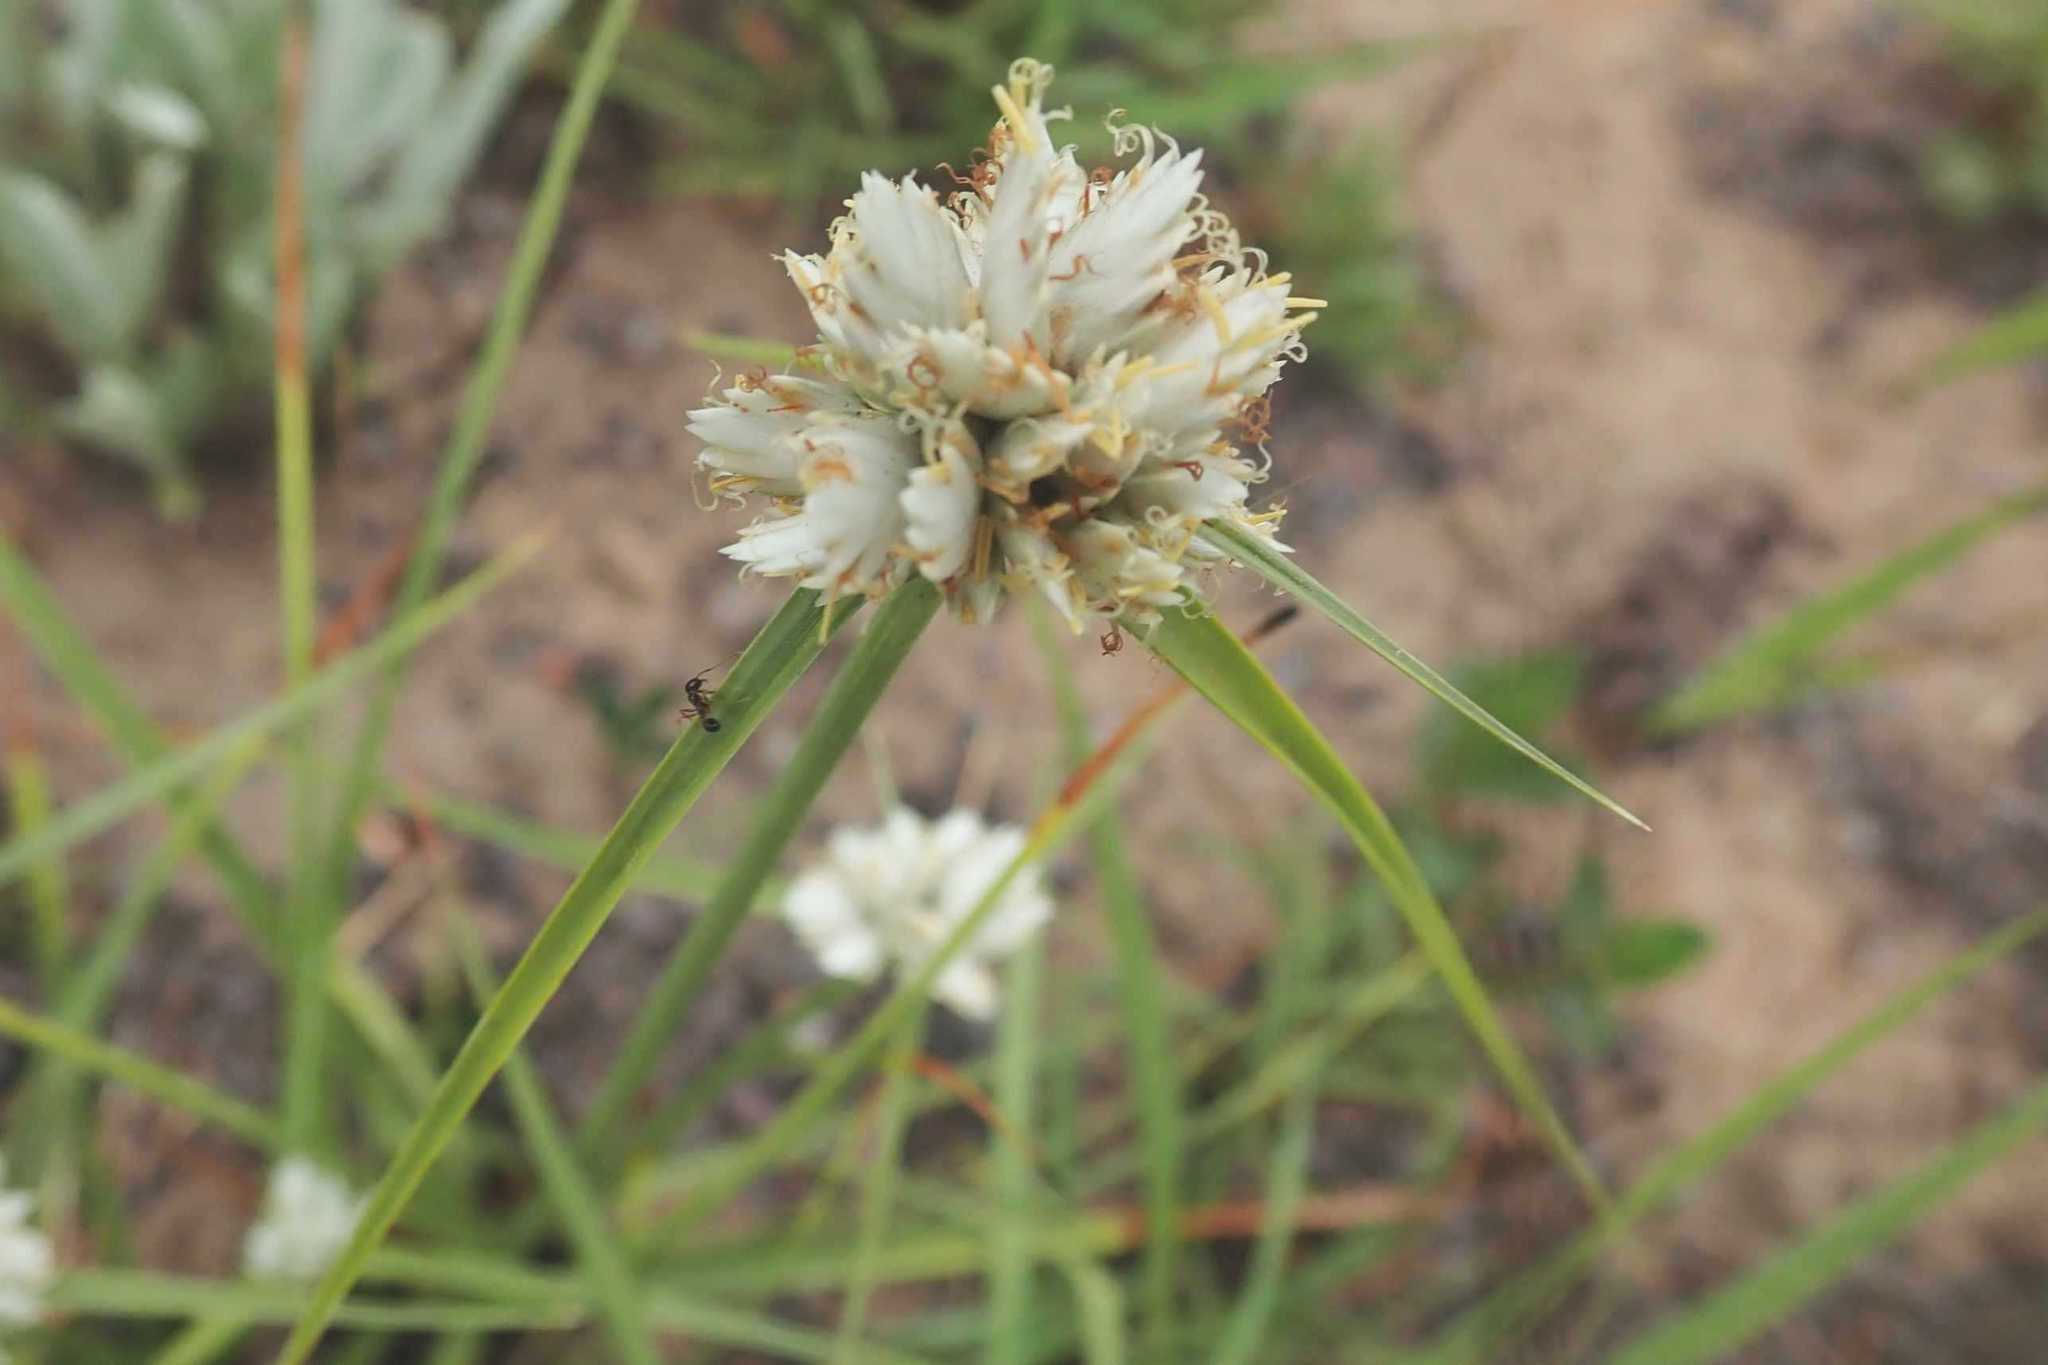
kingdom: Plantae
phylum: Tracheophyta
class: Liliopsida
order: Poales
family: Cyperaceae
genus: Cyperus
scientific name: Cyperus niveus
